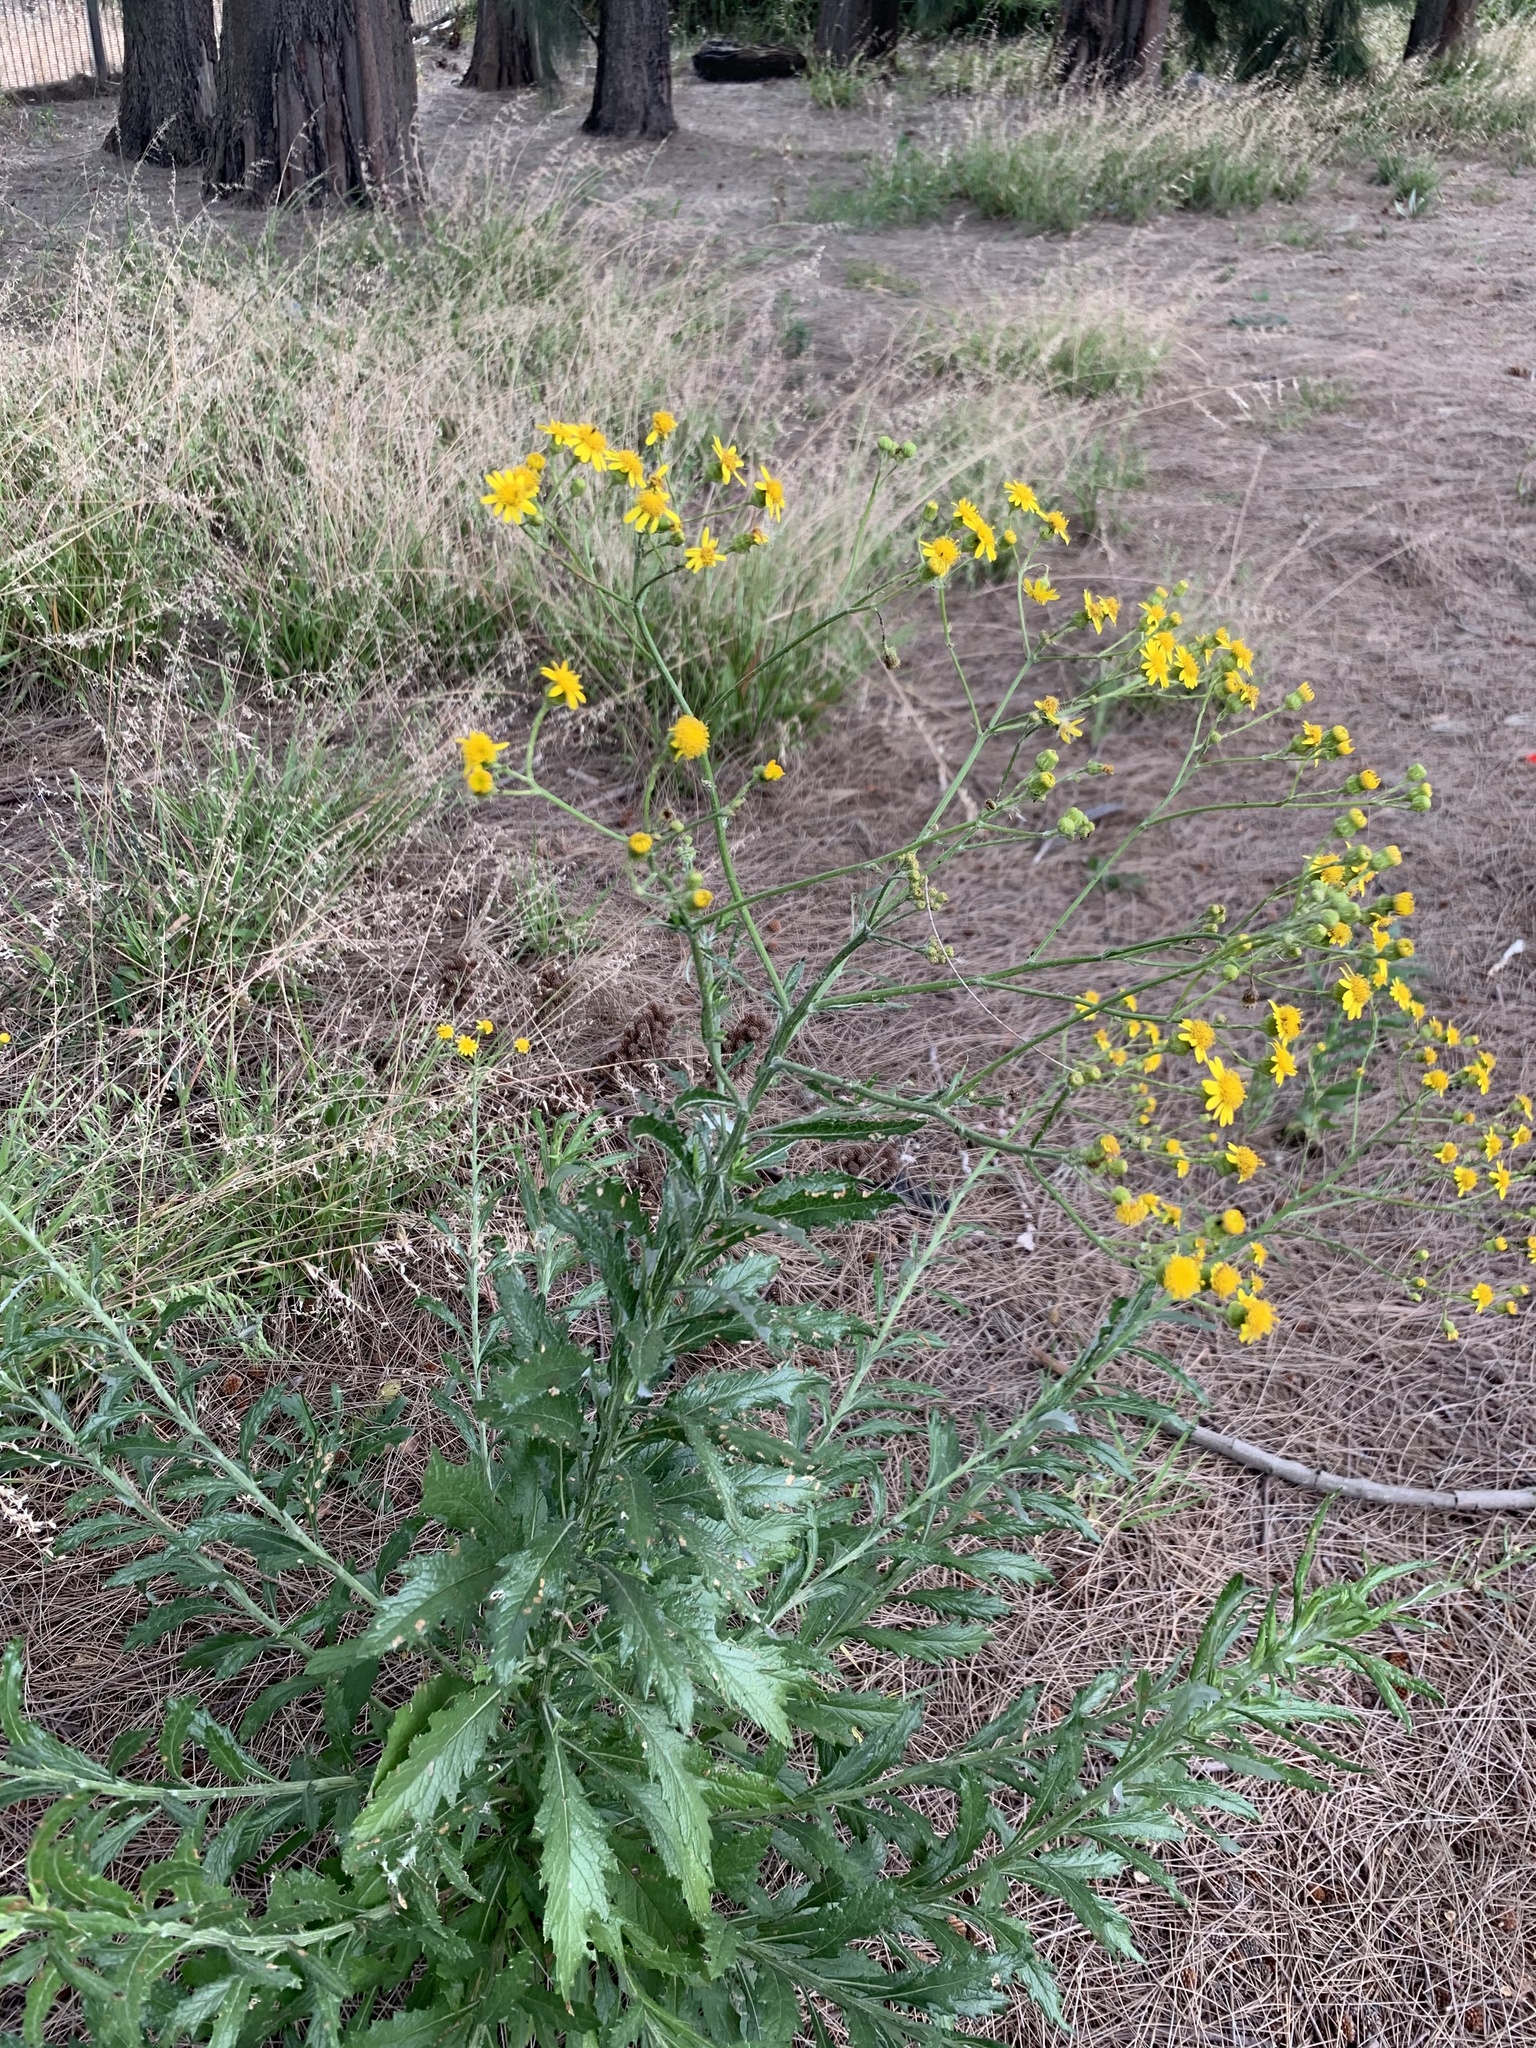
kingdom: Plantae
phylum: Tracheophyta
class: Magnoliopsida
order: Asterales
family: Asteraceae
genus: Senecio
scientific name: Senecio pterophorus
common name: Shoddy ragwort
